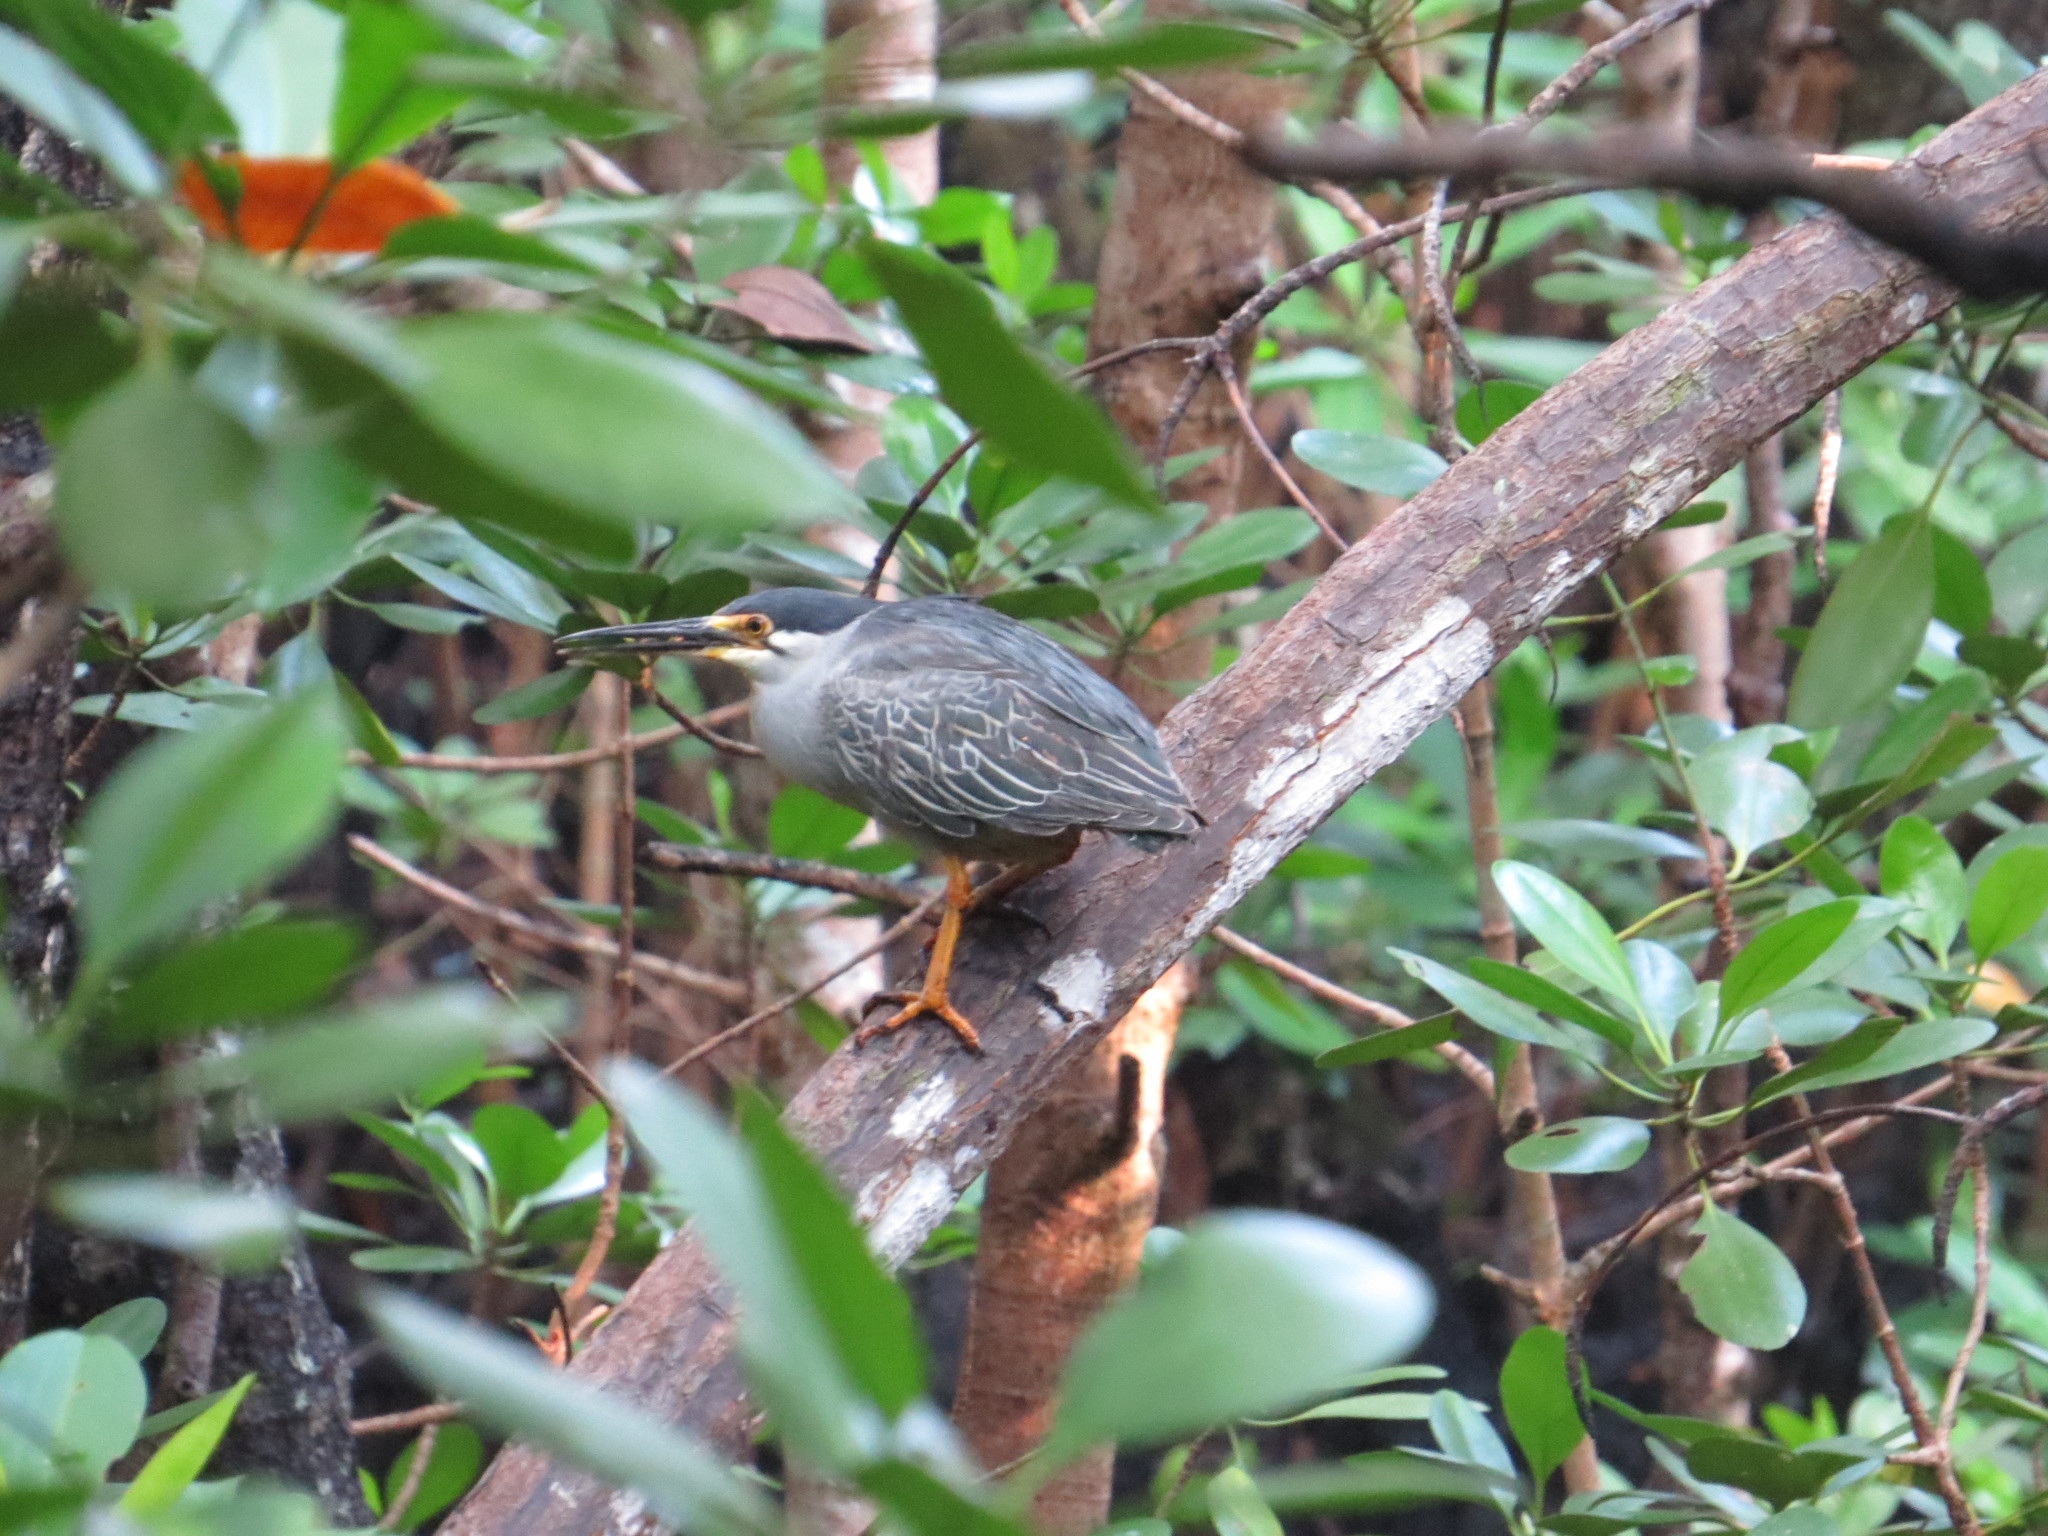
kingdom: Animalia
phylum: Chordata
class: Aves
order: Pelecaniformes
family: Ardeidae
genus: Butorides
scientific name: Butorides striata
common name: Striated heron
